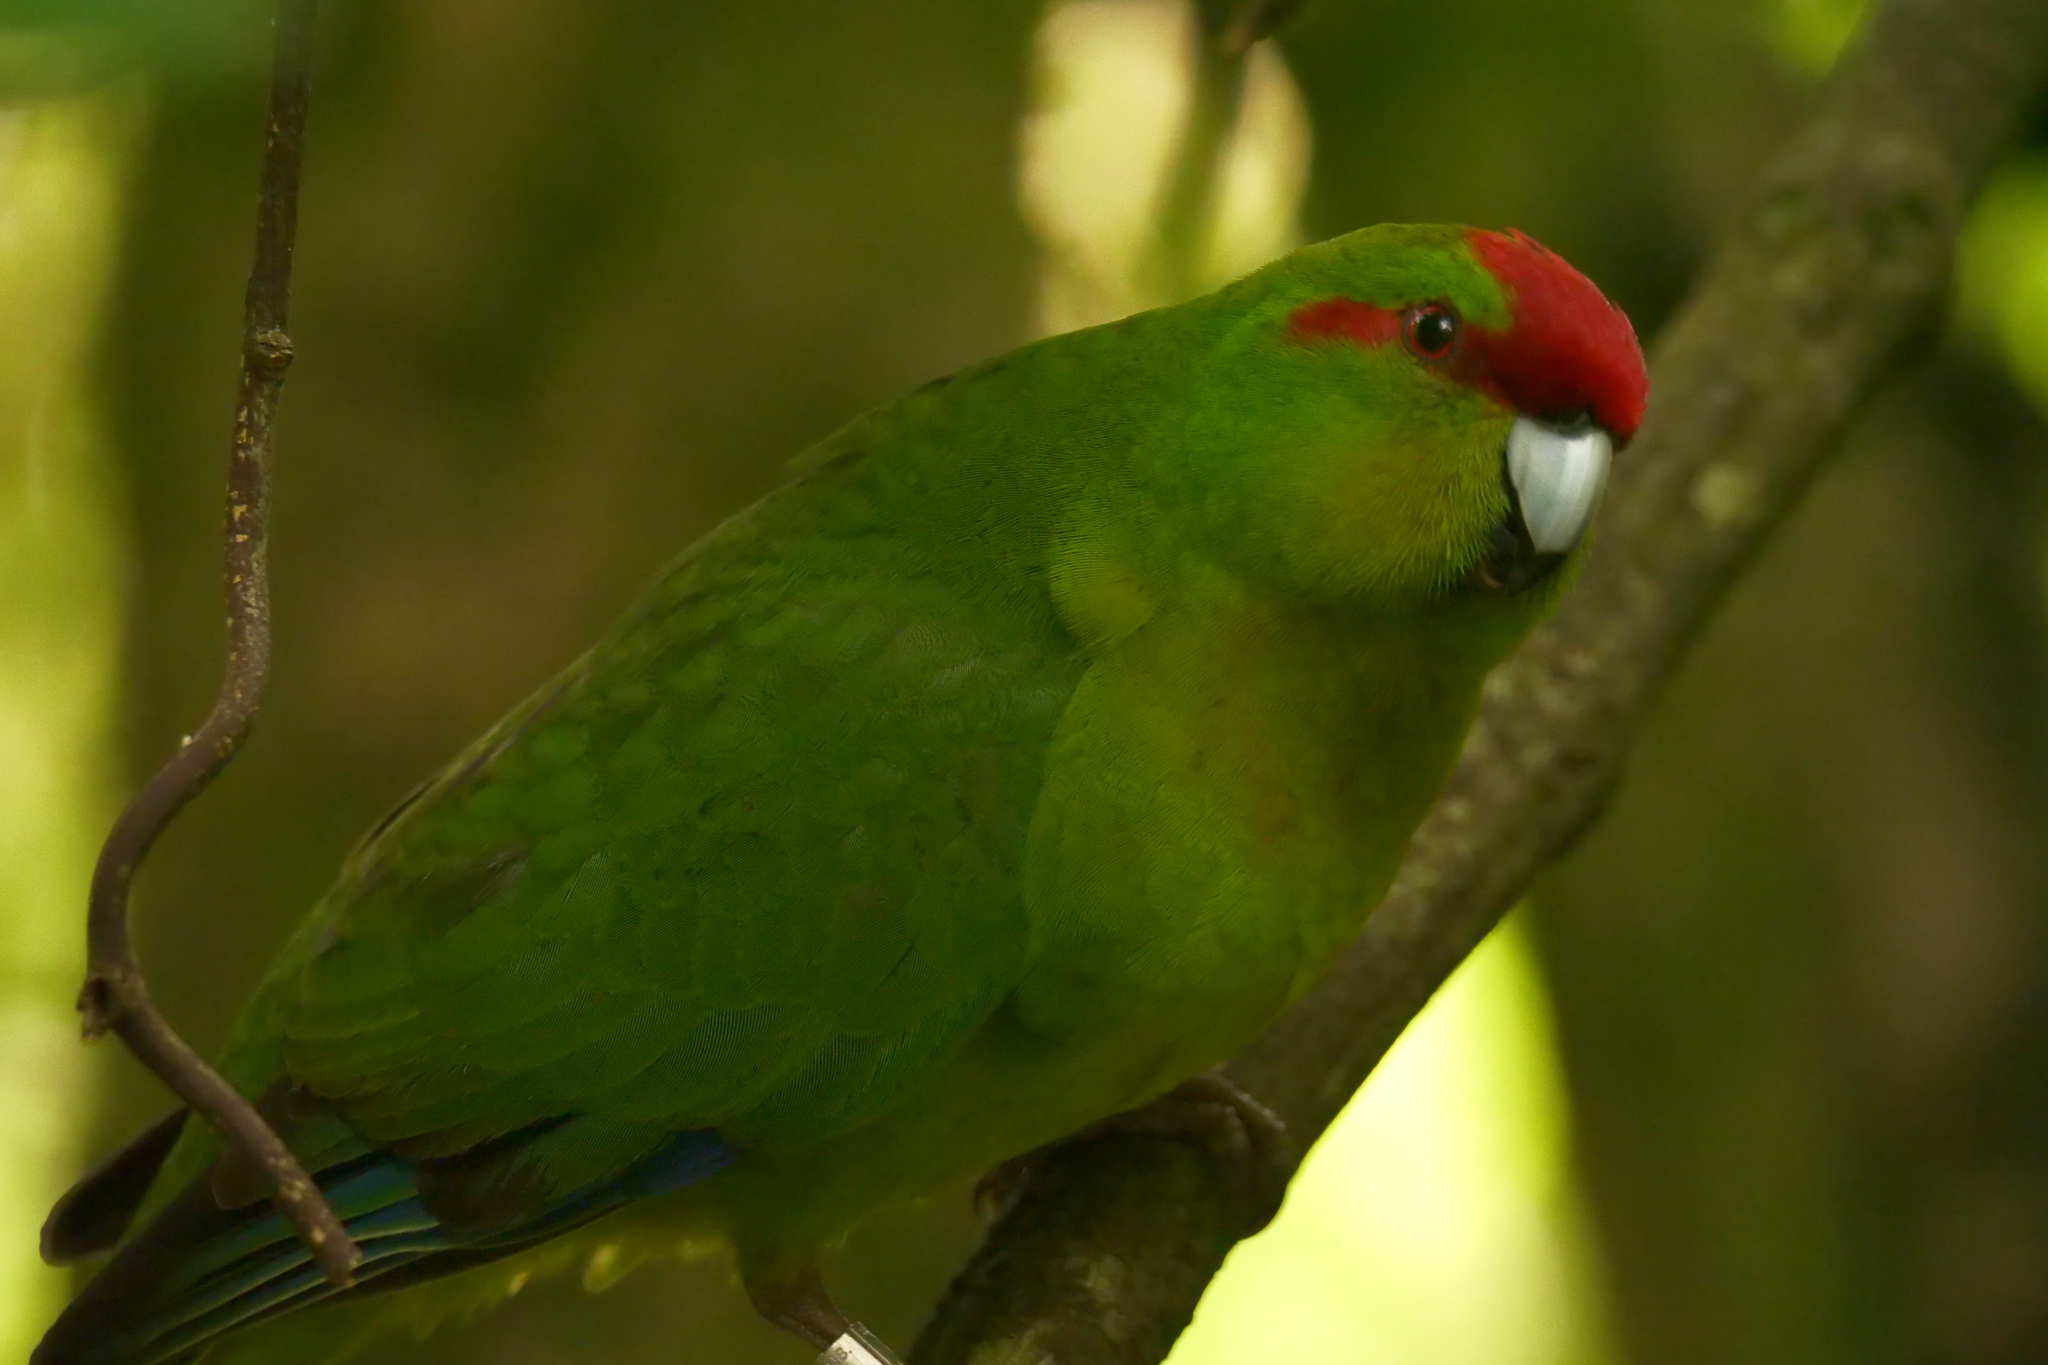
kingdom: Animalia
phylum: Chordata
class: Aves
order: Psittaciformes
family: Psittacidae
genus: Cyanoramphus
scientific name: Cyanoramphus novaezelandiae
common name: Red-fronted parakeet
